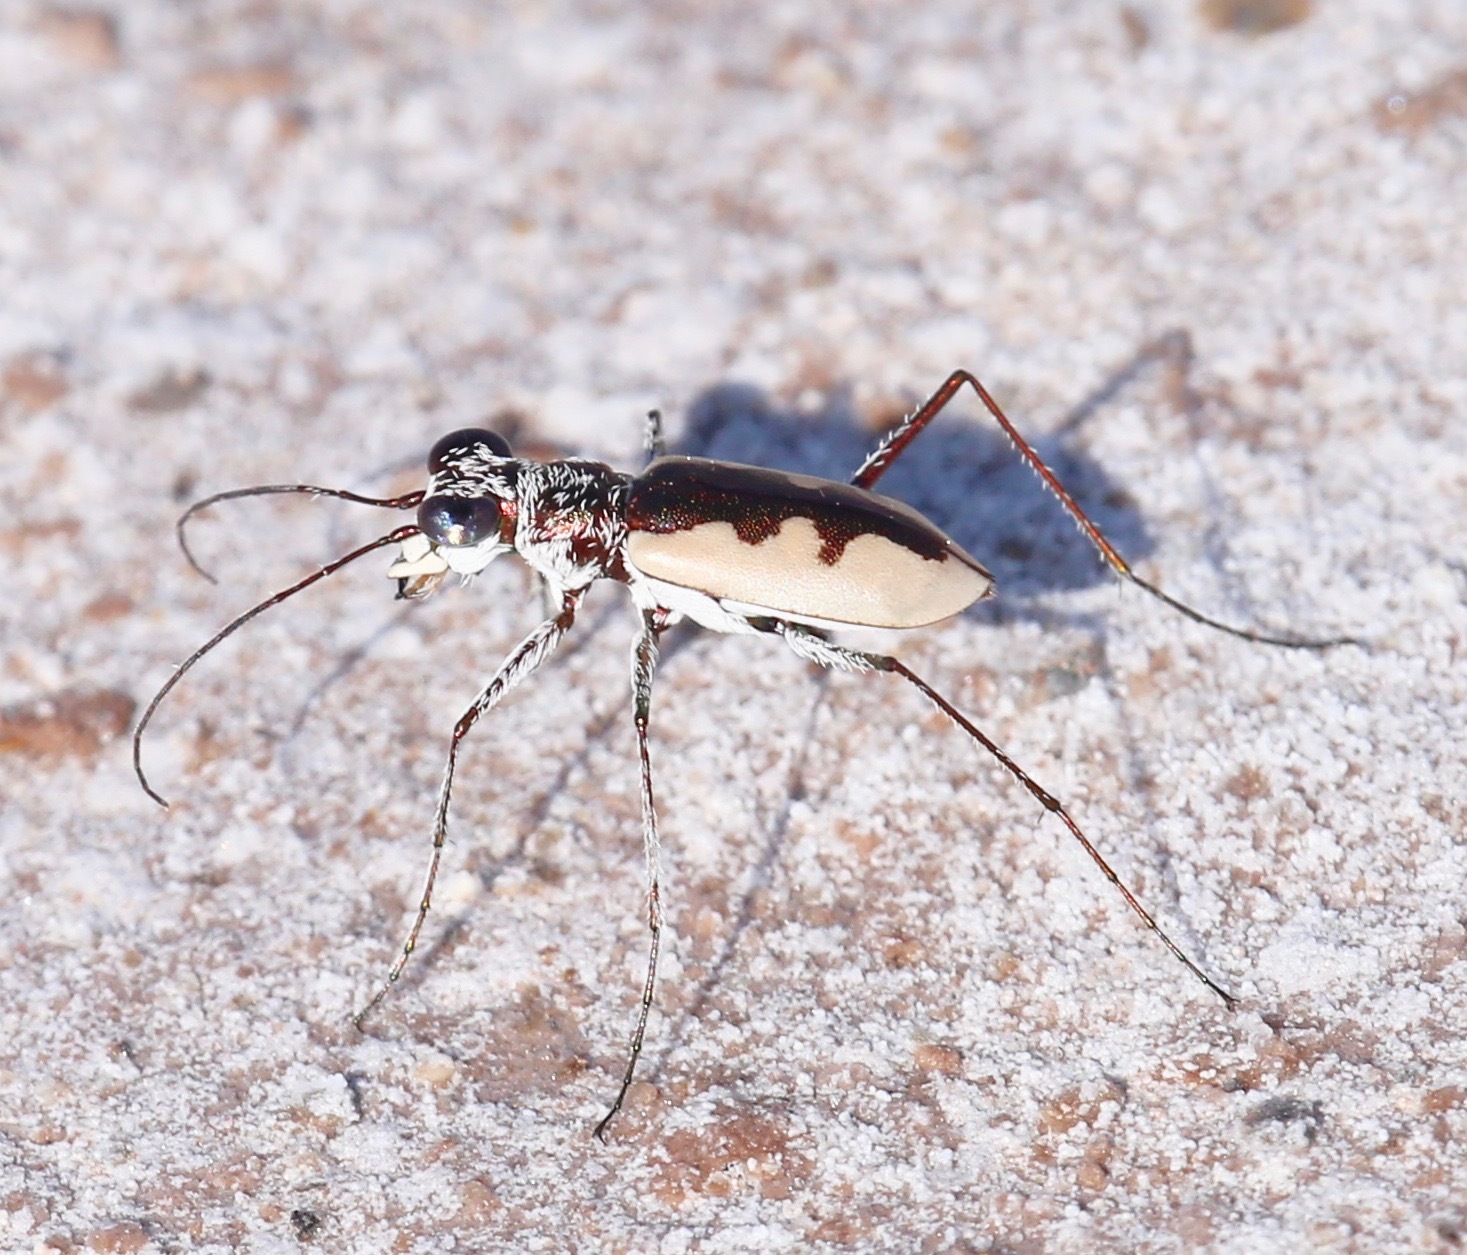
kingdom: Animalia
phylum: Arthropoda
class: Insecta
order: Coleoptera
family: Carabidae
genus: Eunota
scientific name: Eunota togata
